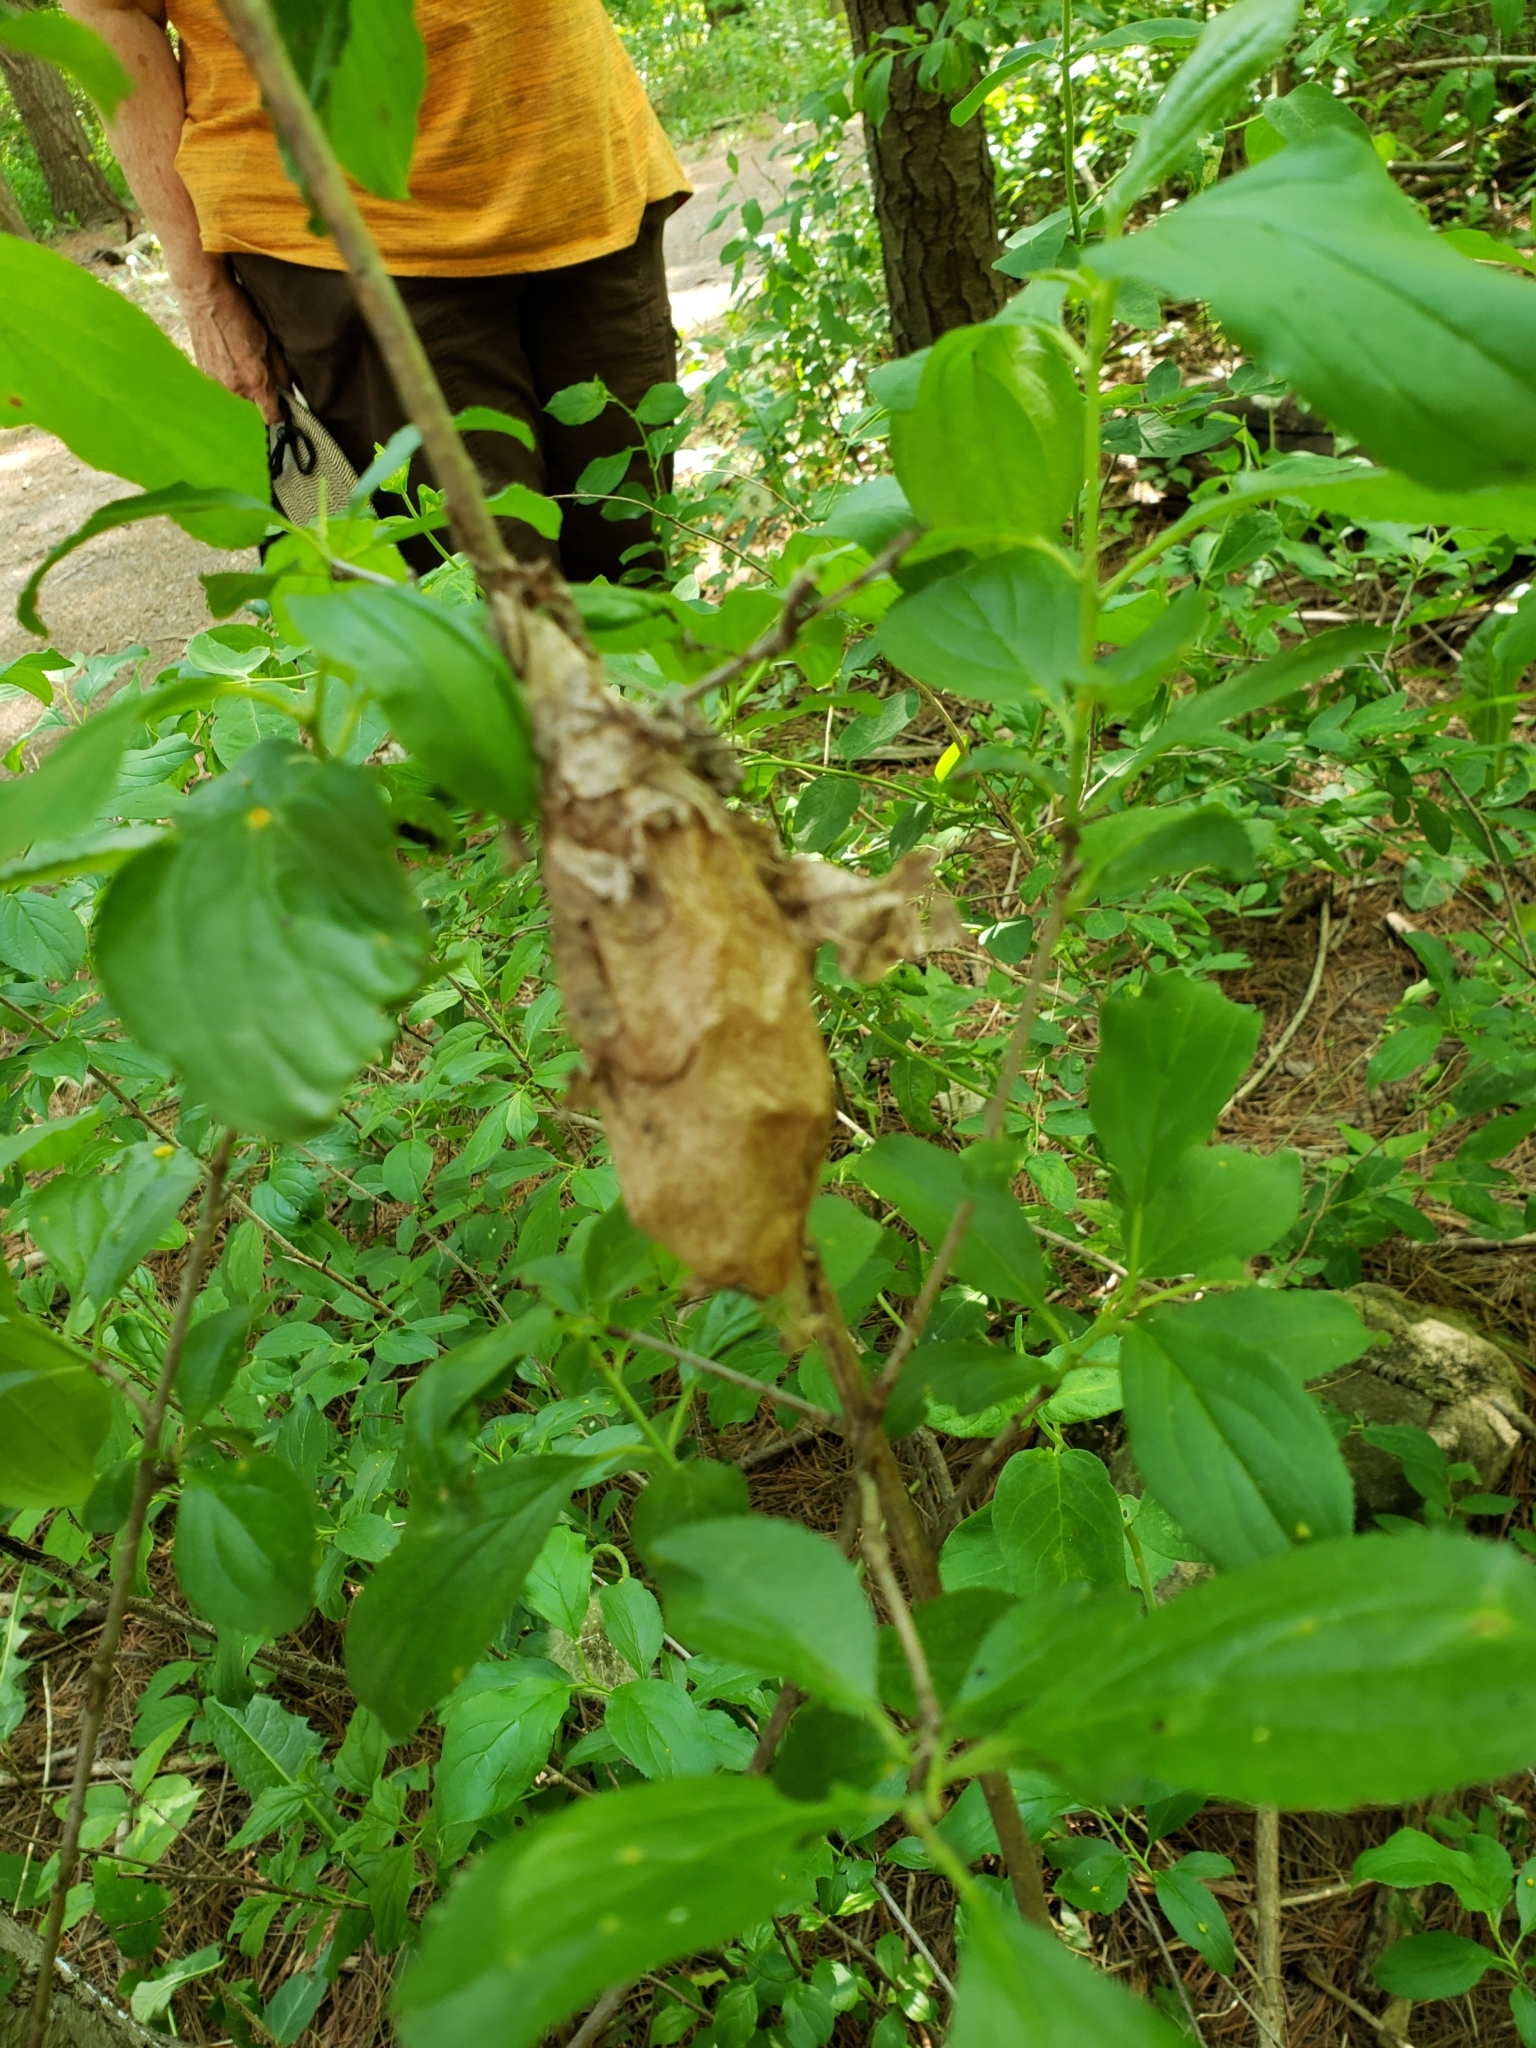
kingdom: Animalia
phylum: Arthropoda
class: Insecta
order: Lepidoptera
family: Saturniidae
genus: Hyalophora
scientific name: Hyalophora cecropia
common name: Cecropia silkmoth
